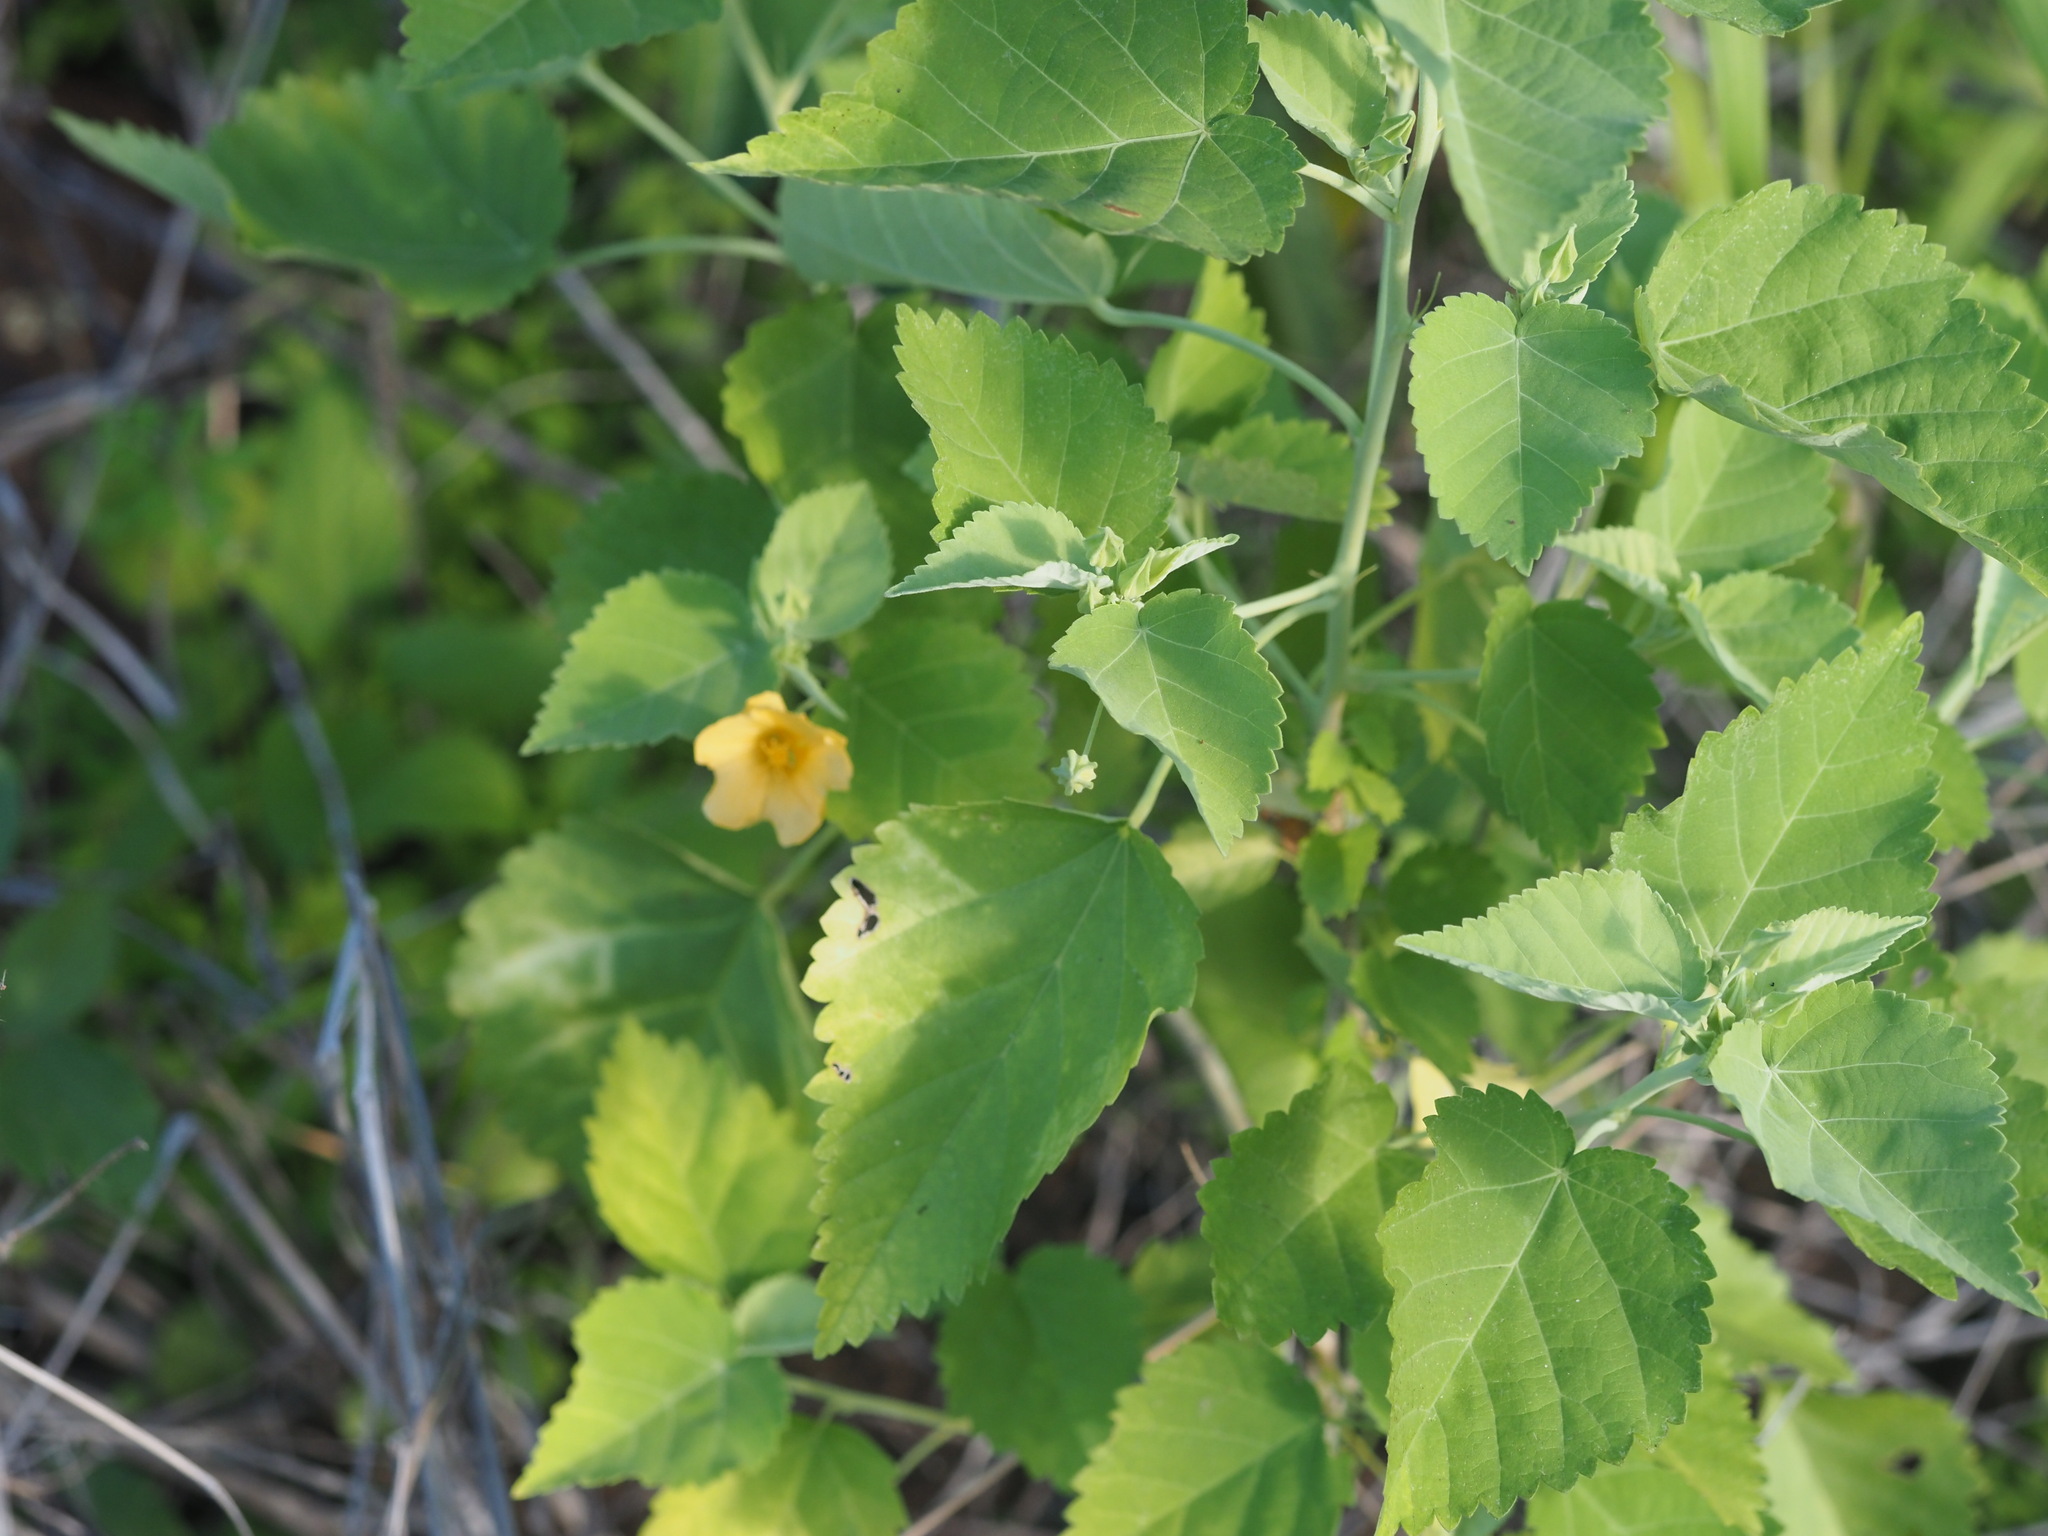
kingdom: Plantae
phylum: Tracheophyta
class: Magnoliopsida
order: Malvales
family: Malvaceae
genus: Sida
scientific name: Sida fallax
